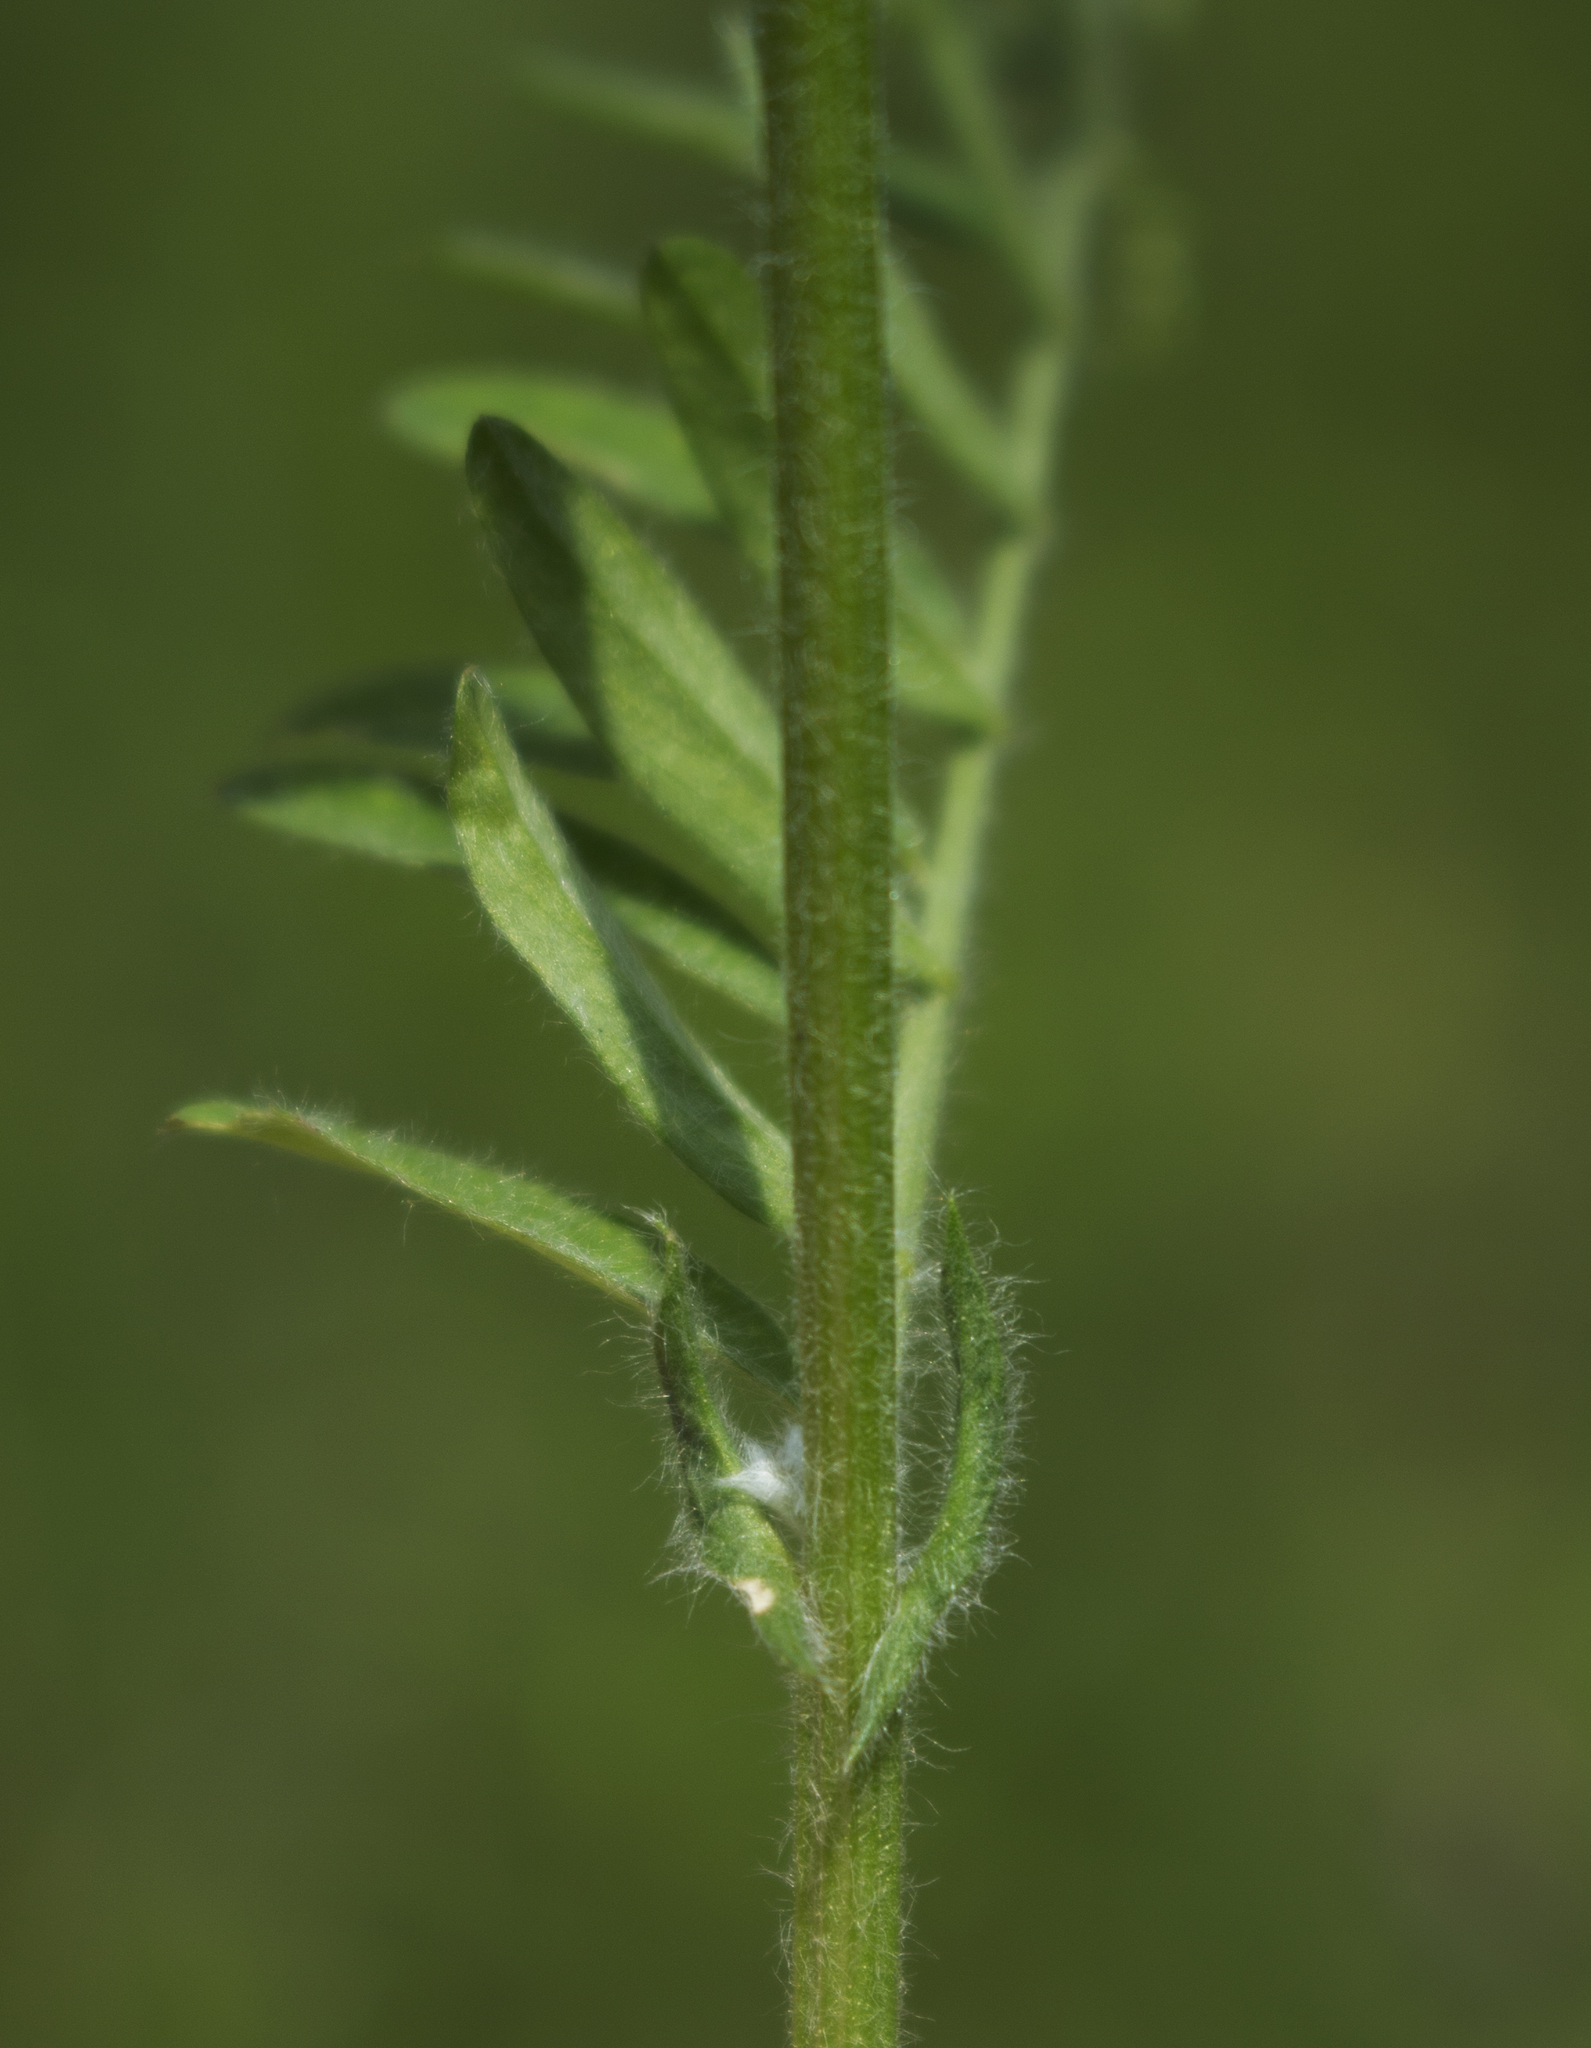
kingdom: Plantae
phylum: Tracheophyta
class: Magnoliopsida
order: Fabales
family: Fabaceae
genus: Vicia
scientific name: Vicia villosa
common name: Fodder vetch
